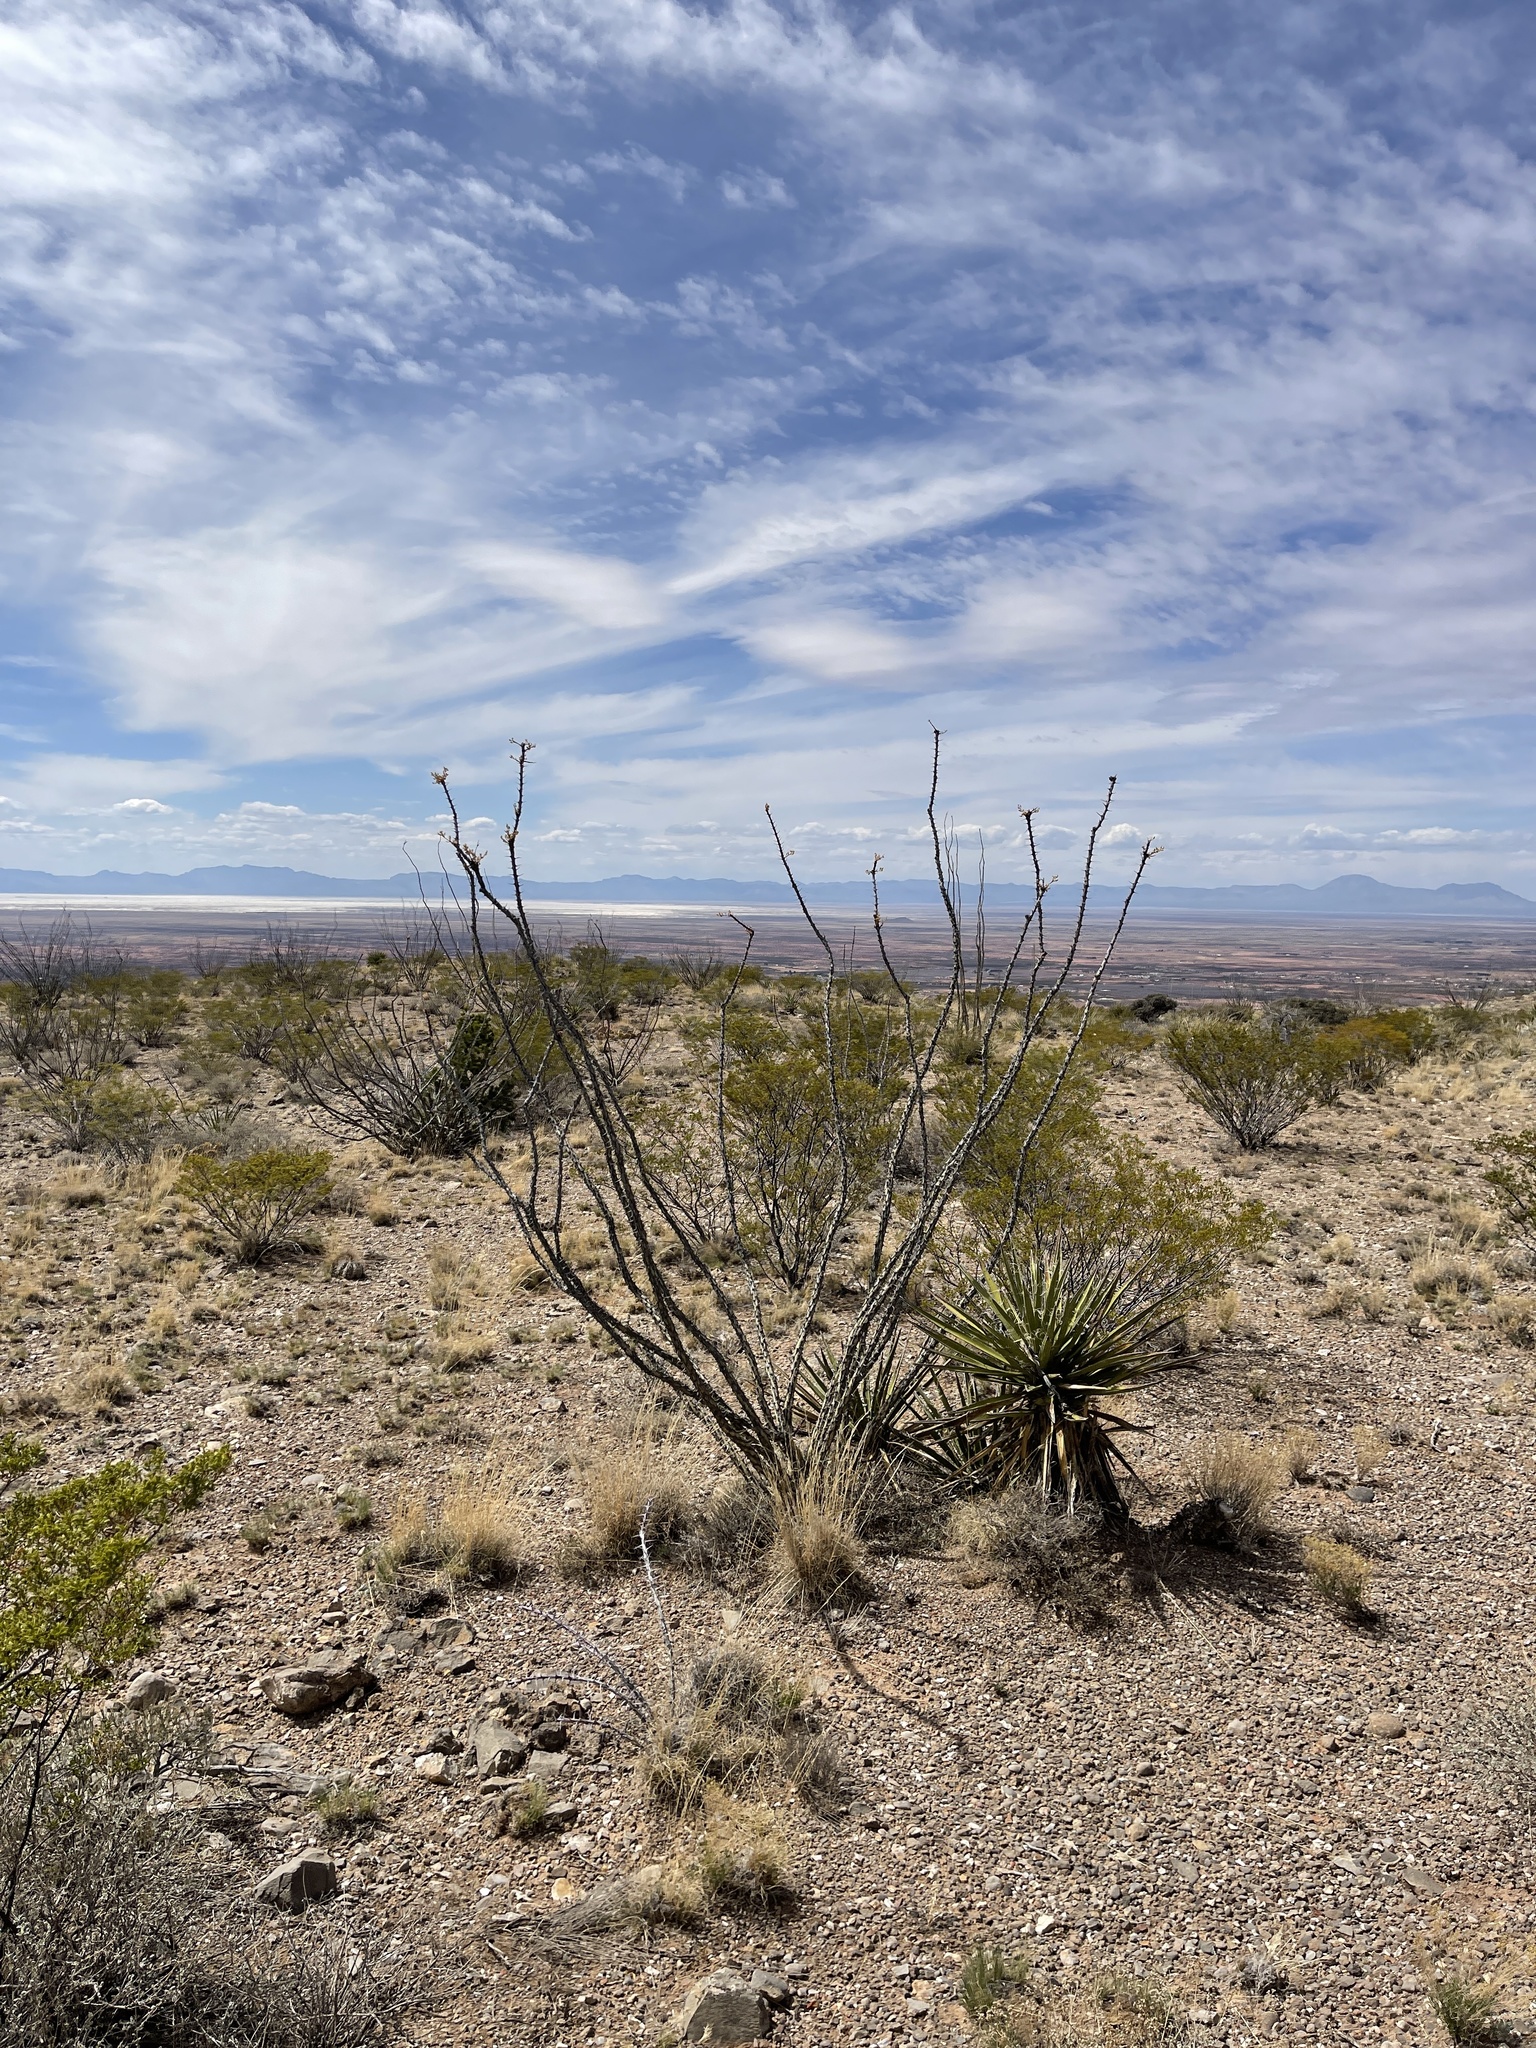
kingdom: Plantae
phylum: Tracheophyta
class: Magnoliopsida
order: Ericales
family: Fouquieriaceae
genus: Fouquieria
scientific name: Fouquieria splendens
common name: Vine-cactus
